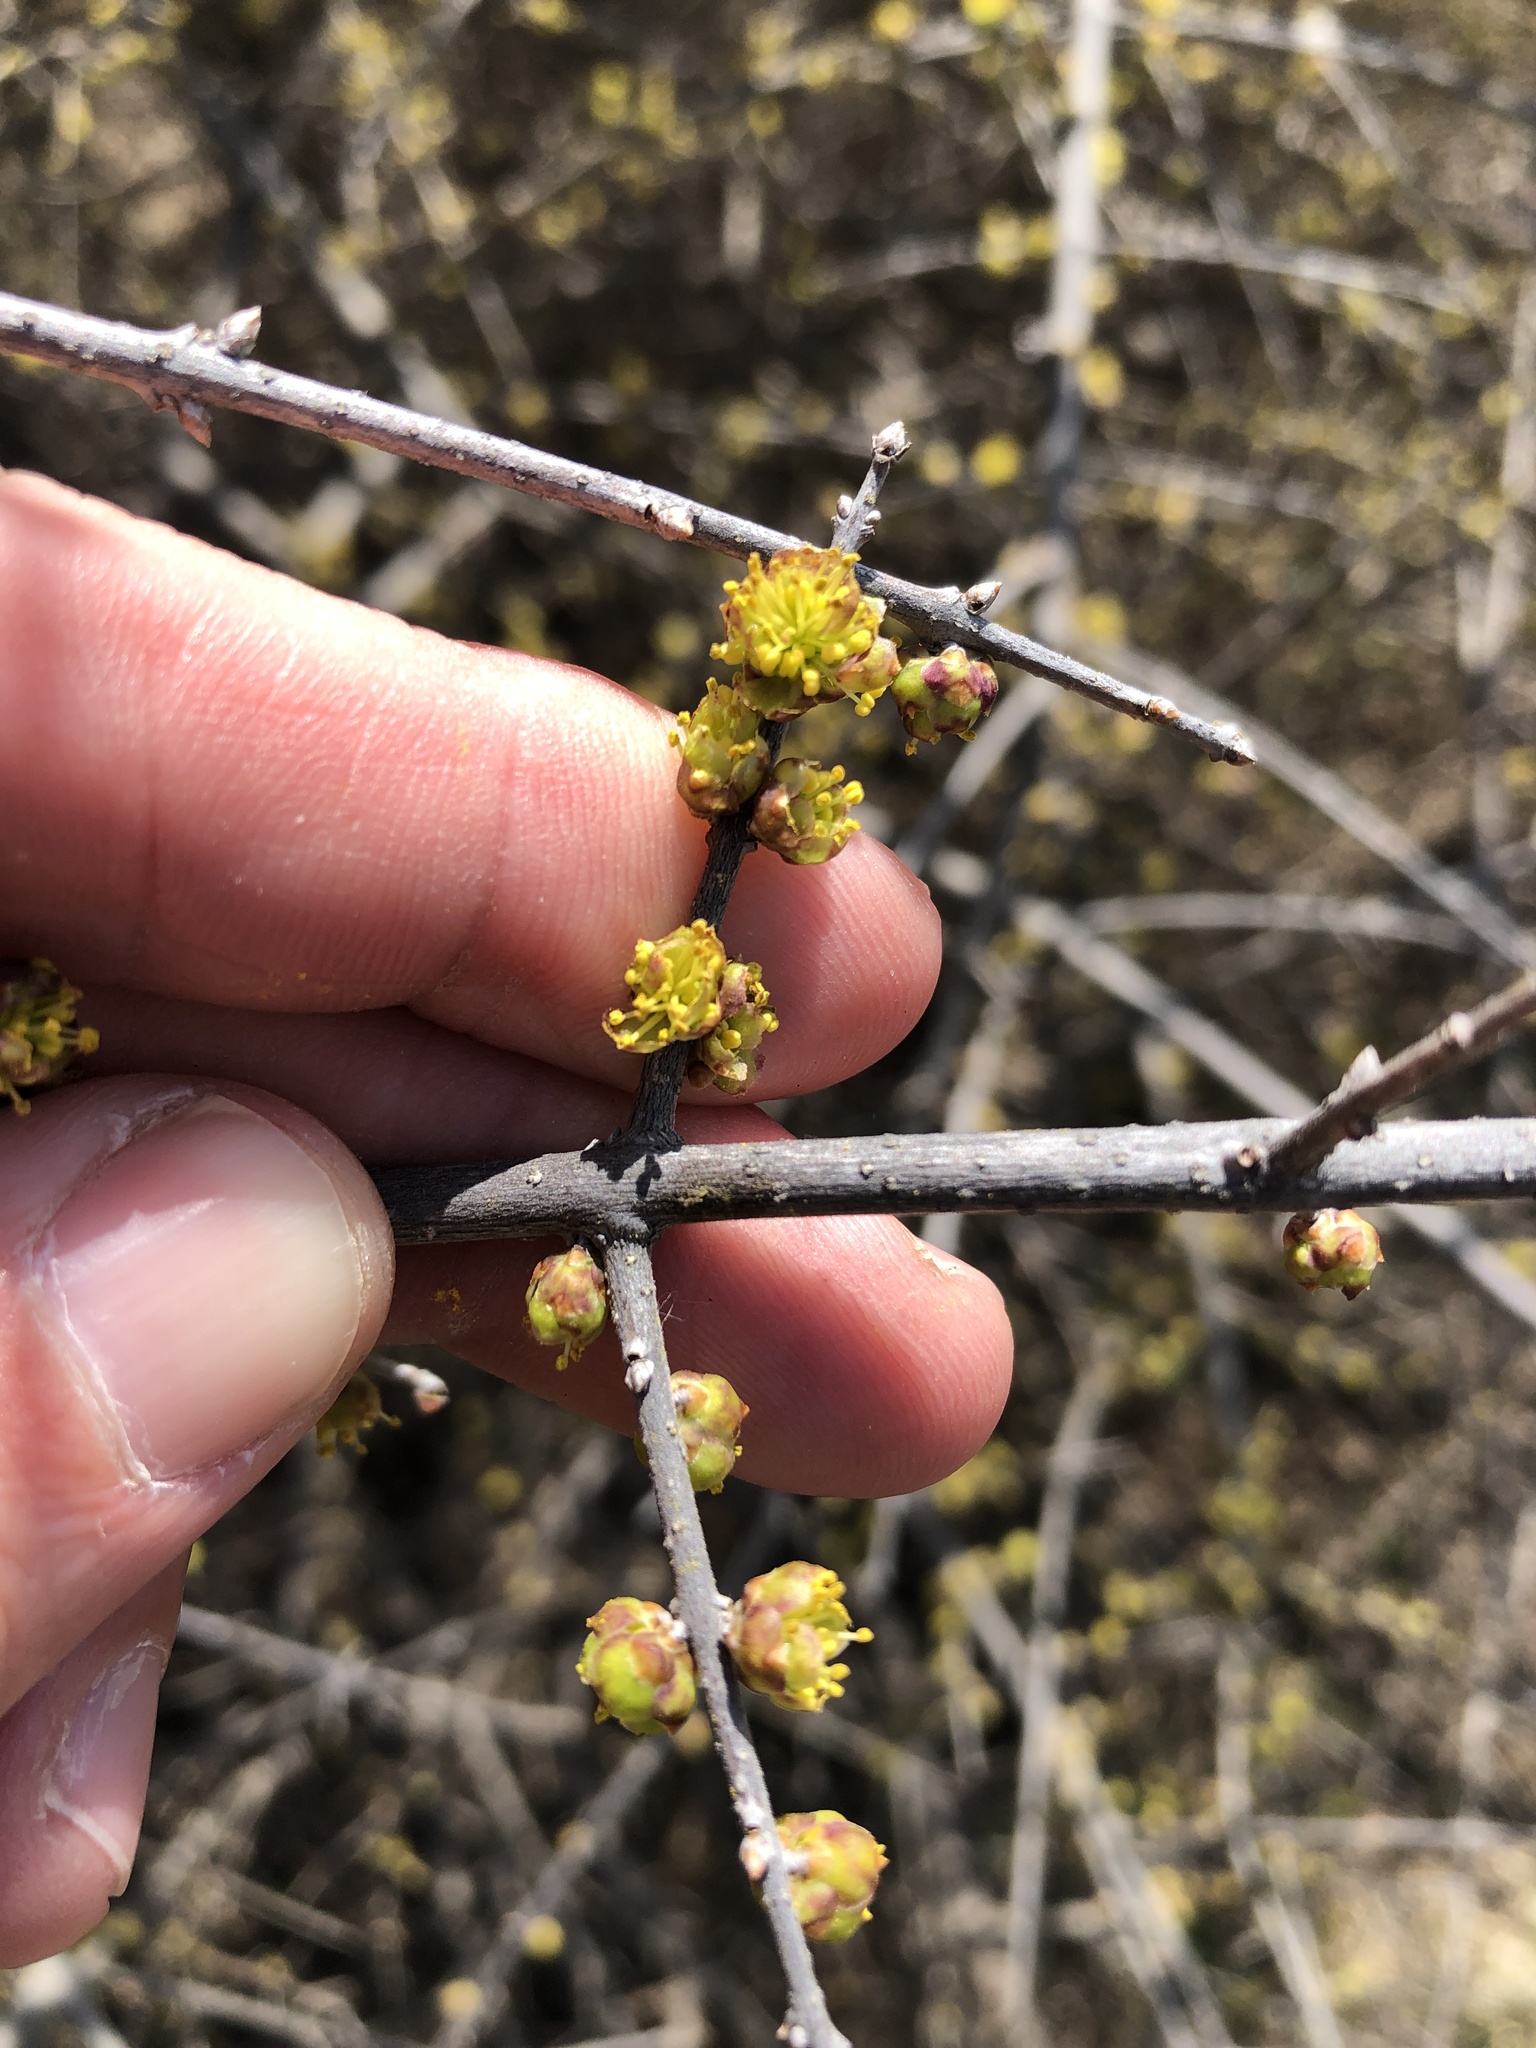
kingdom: Plantae
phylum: Tracheophyta
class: Magnoliopsida
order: Lamiales
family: Oleaceae
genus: Forestiera
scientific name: Forestiera pubescens
